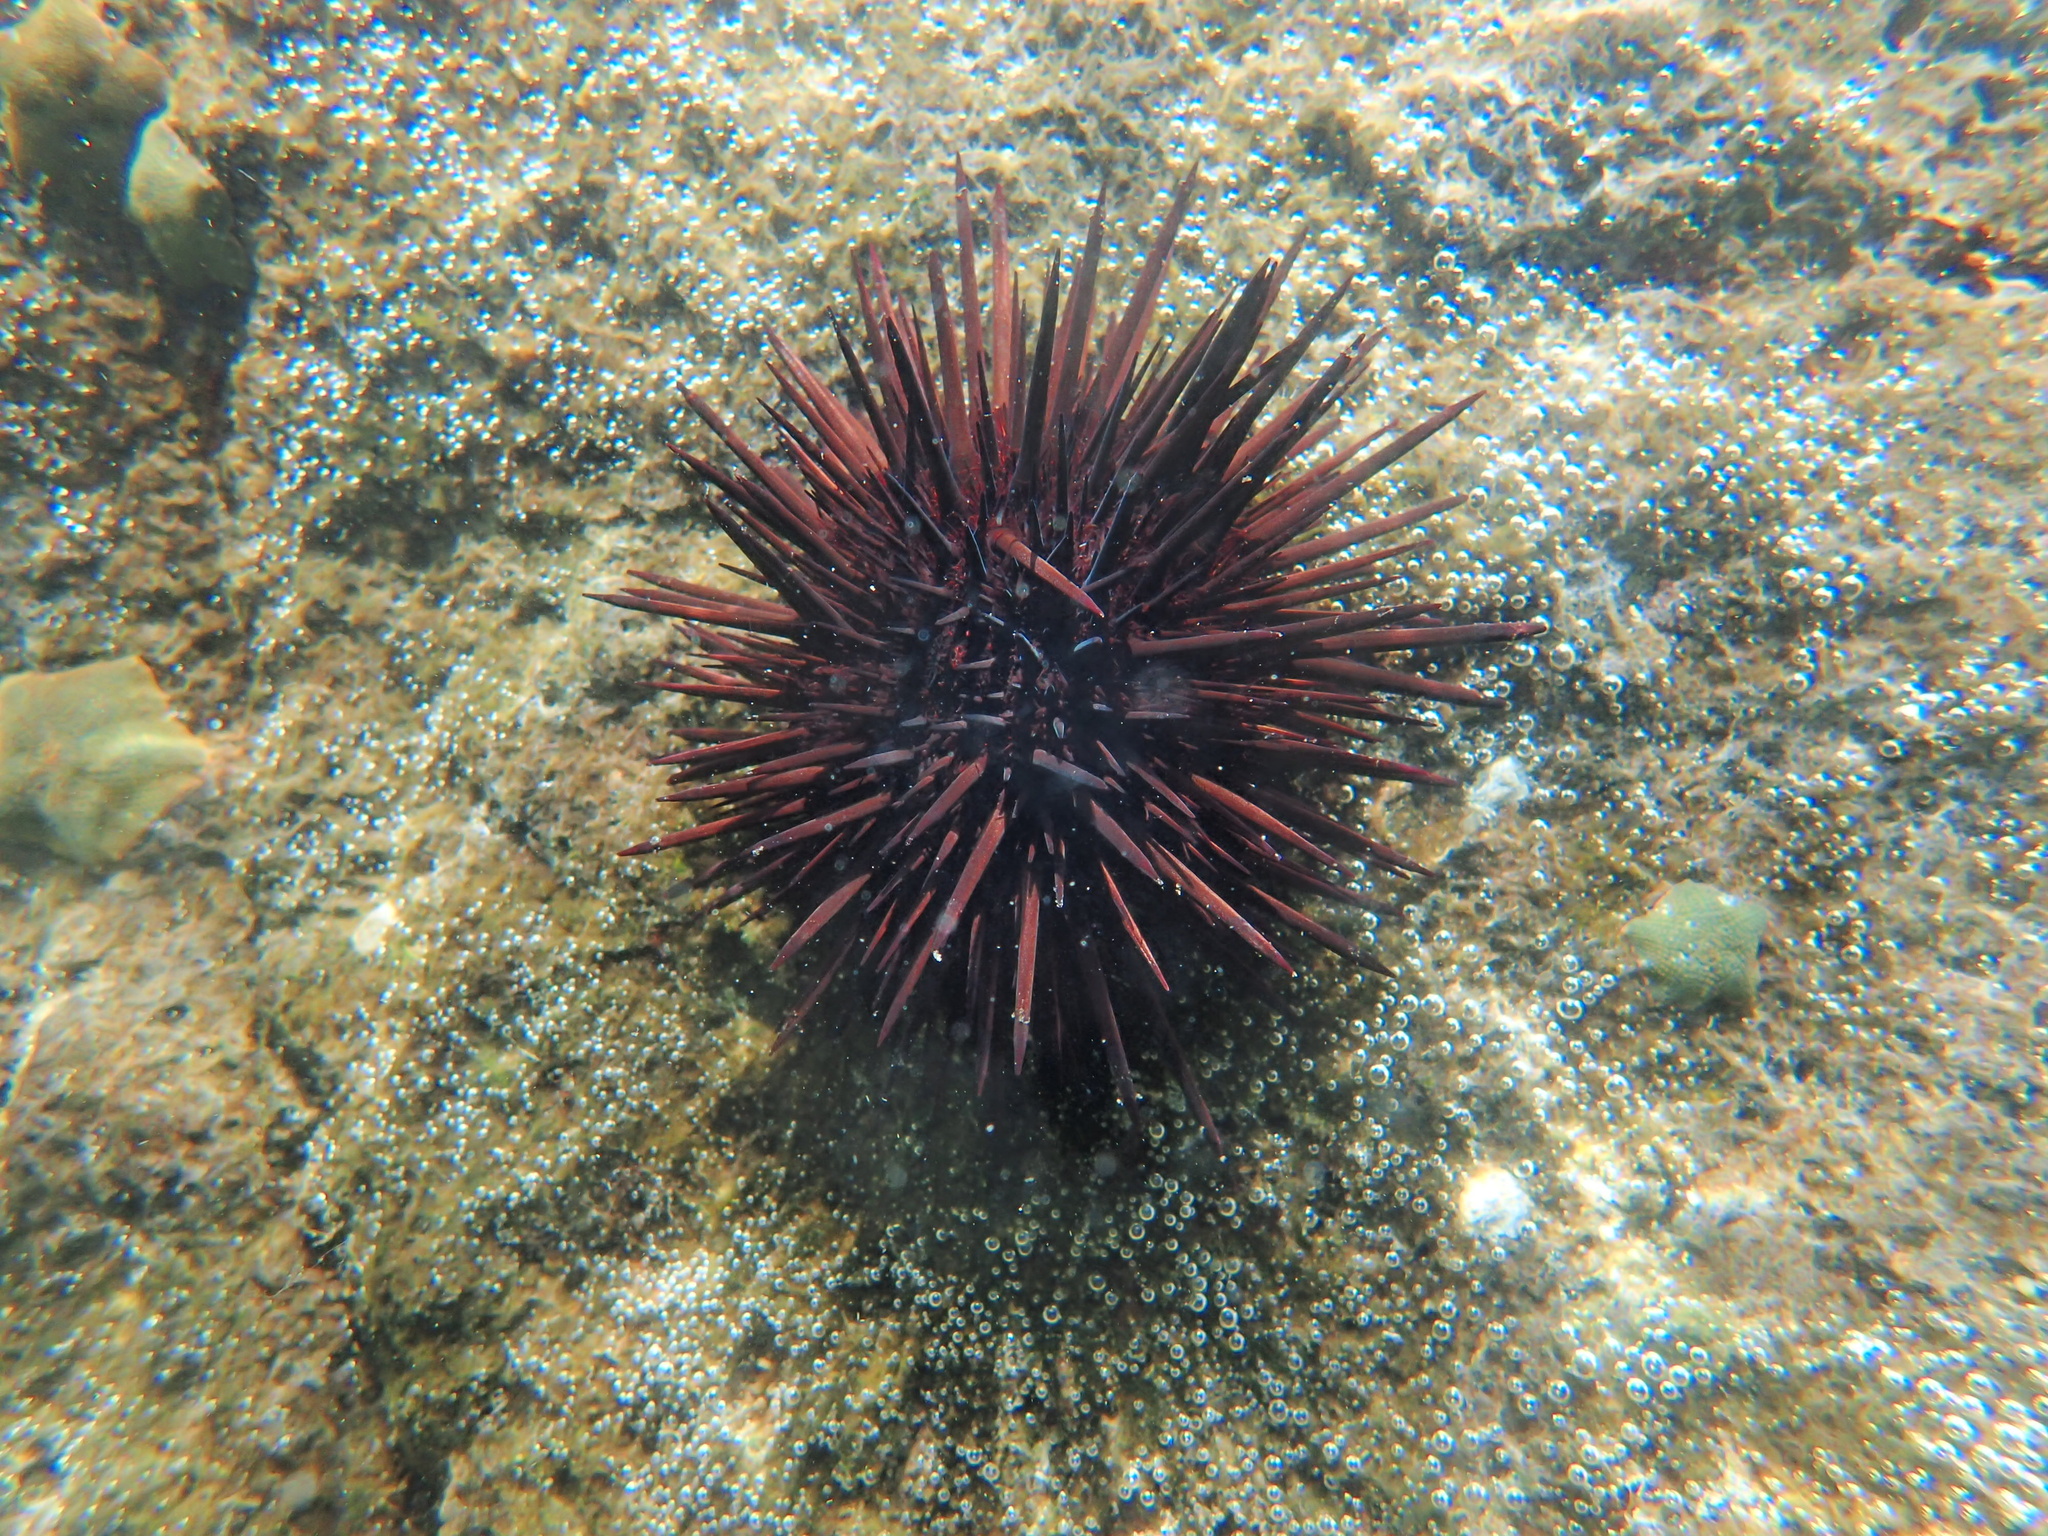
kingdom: Animalia
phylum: Echinodermata
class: Echinoidea
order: Camarodonta
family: Echinometridae
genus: Echinometra
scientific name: Echinometra lucunter
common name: Rock urchin
